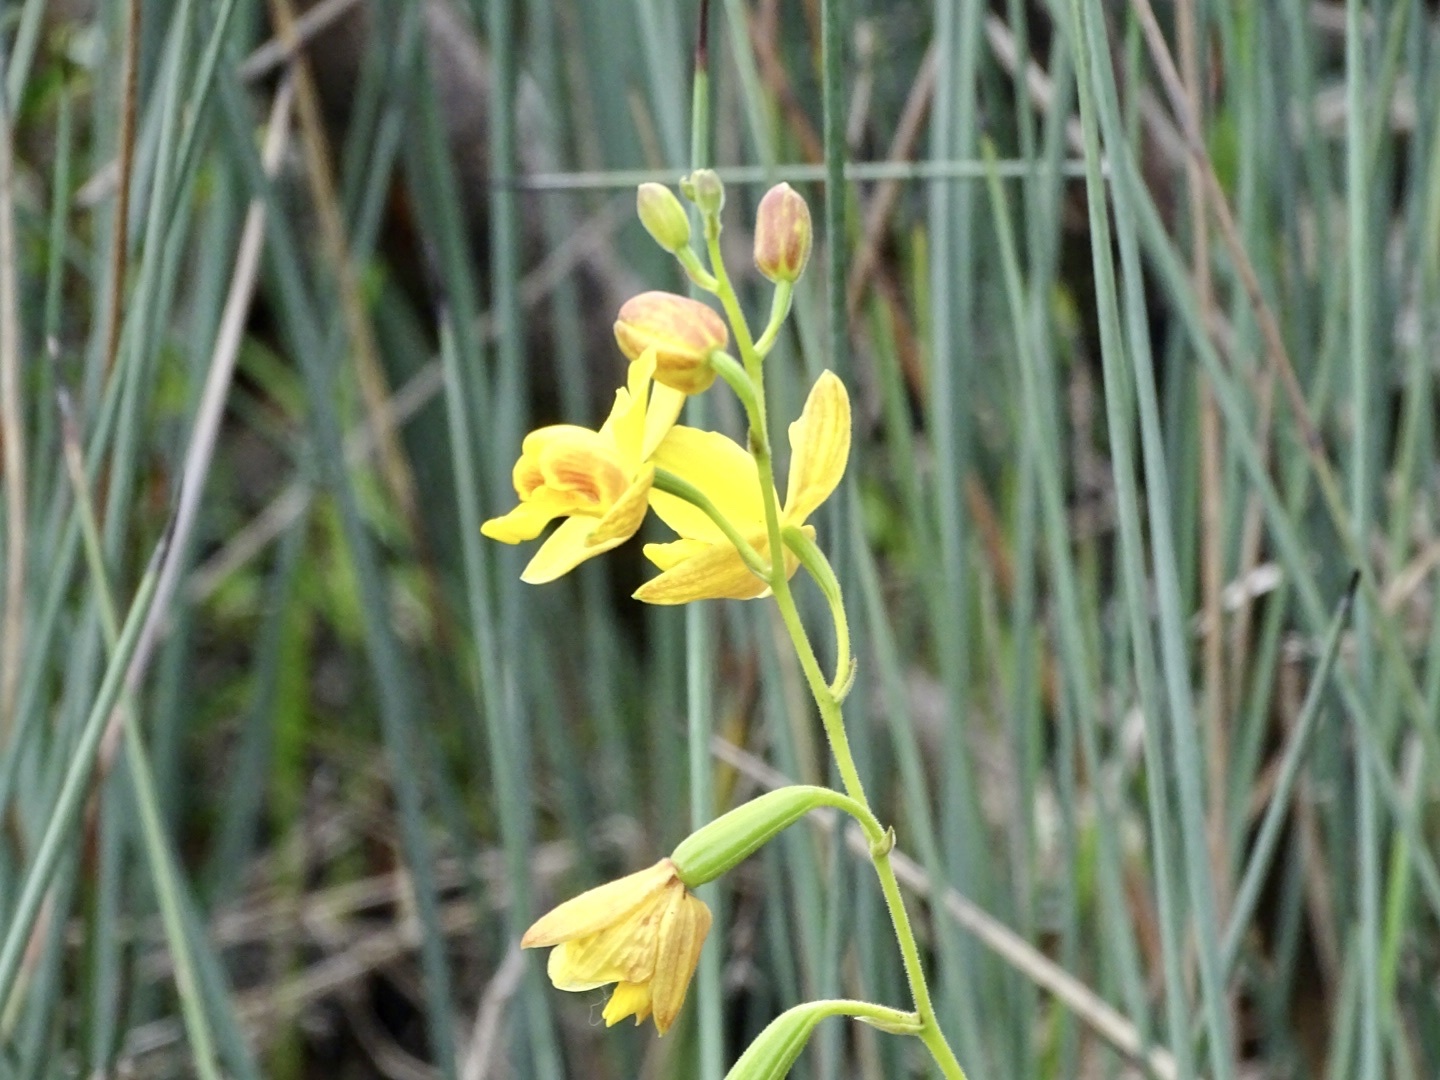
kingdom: Plantae
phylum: Tracheophyta
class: Liliopsida
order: Asparagales
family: Orchidaceae
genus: Spathoglottis
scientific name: Spathoglottis pubescens
